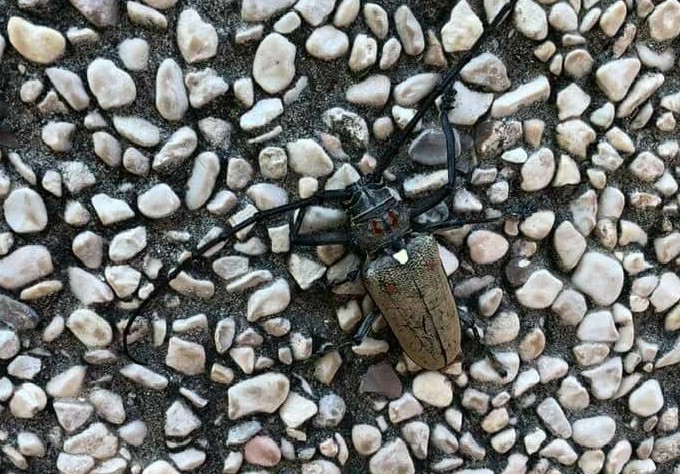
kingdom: Animalia
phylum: Arthropoda
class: Insecta
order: Coleoptera
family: Cerambycidae
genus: Batocera
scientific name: Batocera rufomaculata
